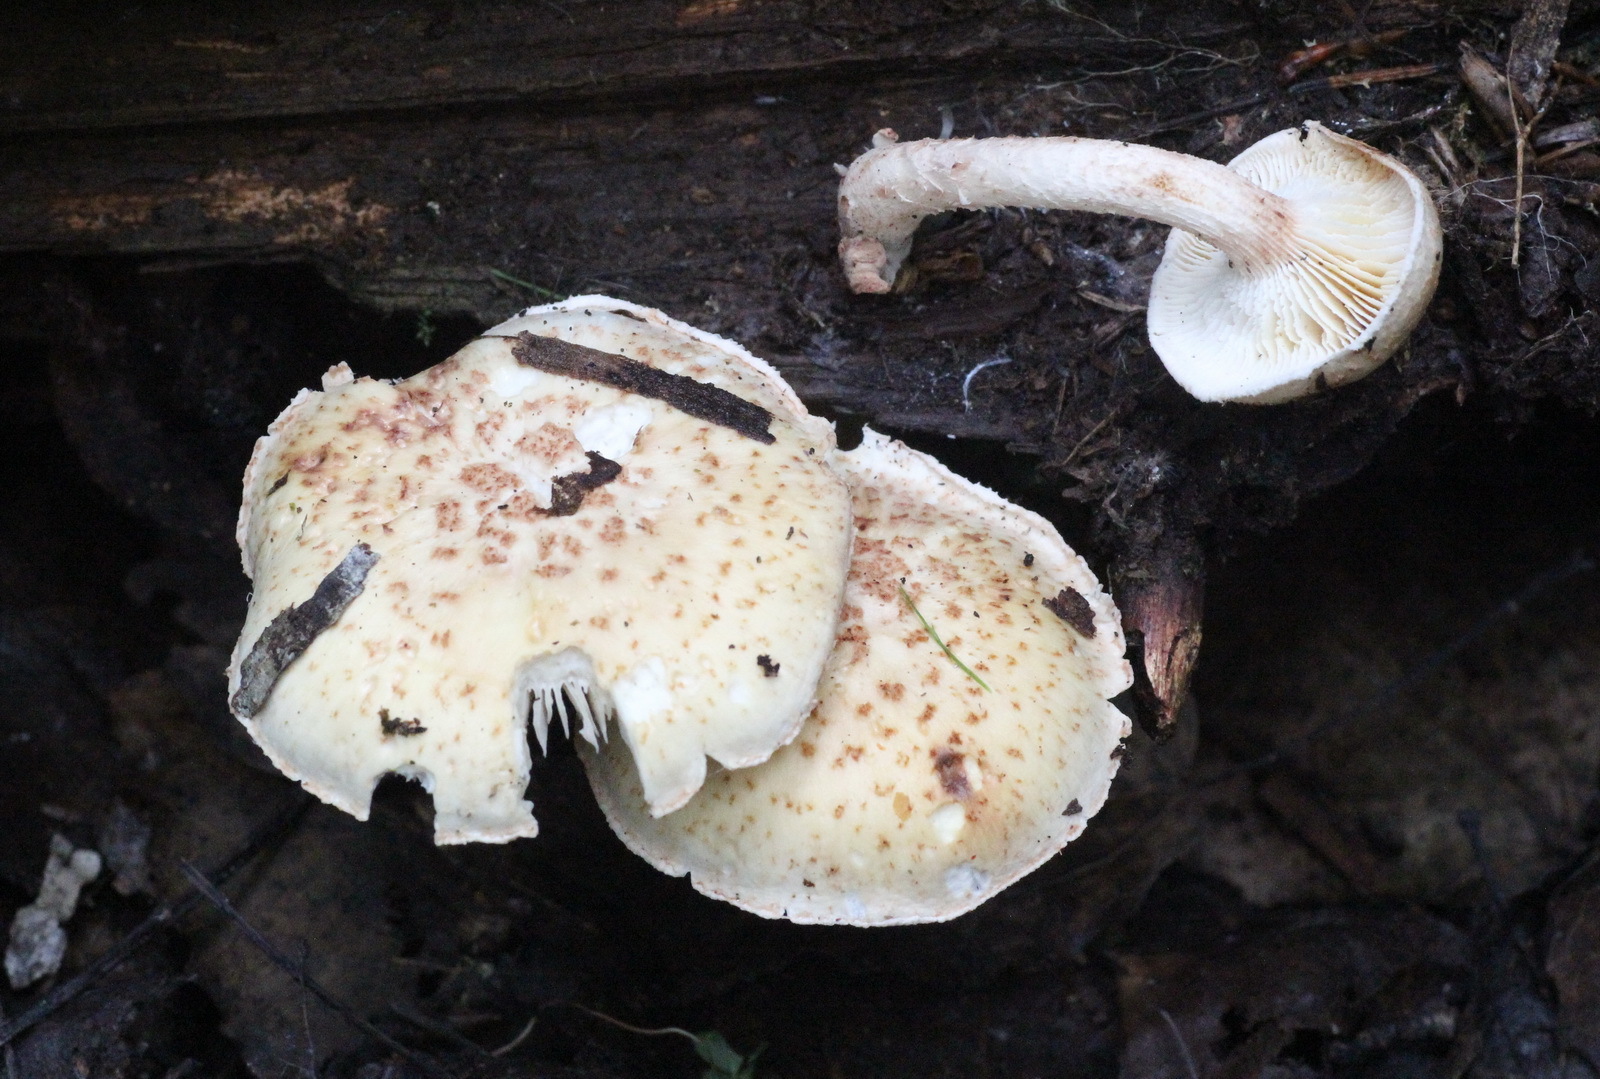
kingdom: Fungi
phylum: Basidiomycota
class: Agaricomycetes
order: Gloeophyllales
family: Gloeophyllaceae
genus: Neolentinus
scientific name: Neolentinus lepideus
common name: Scaly sawgill
